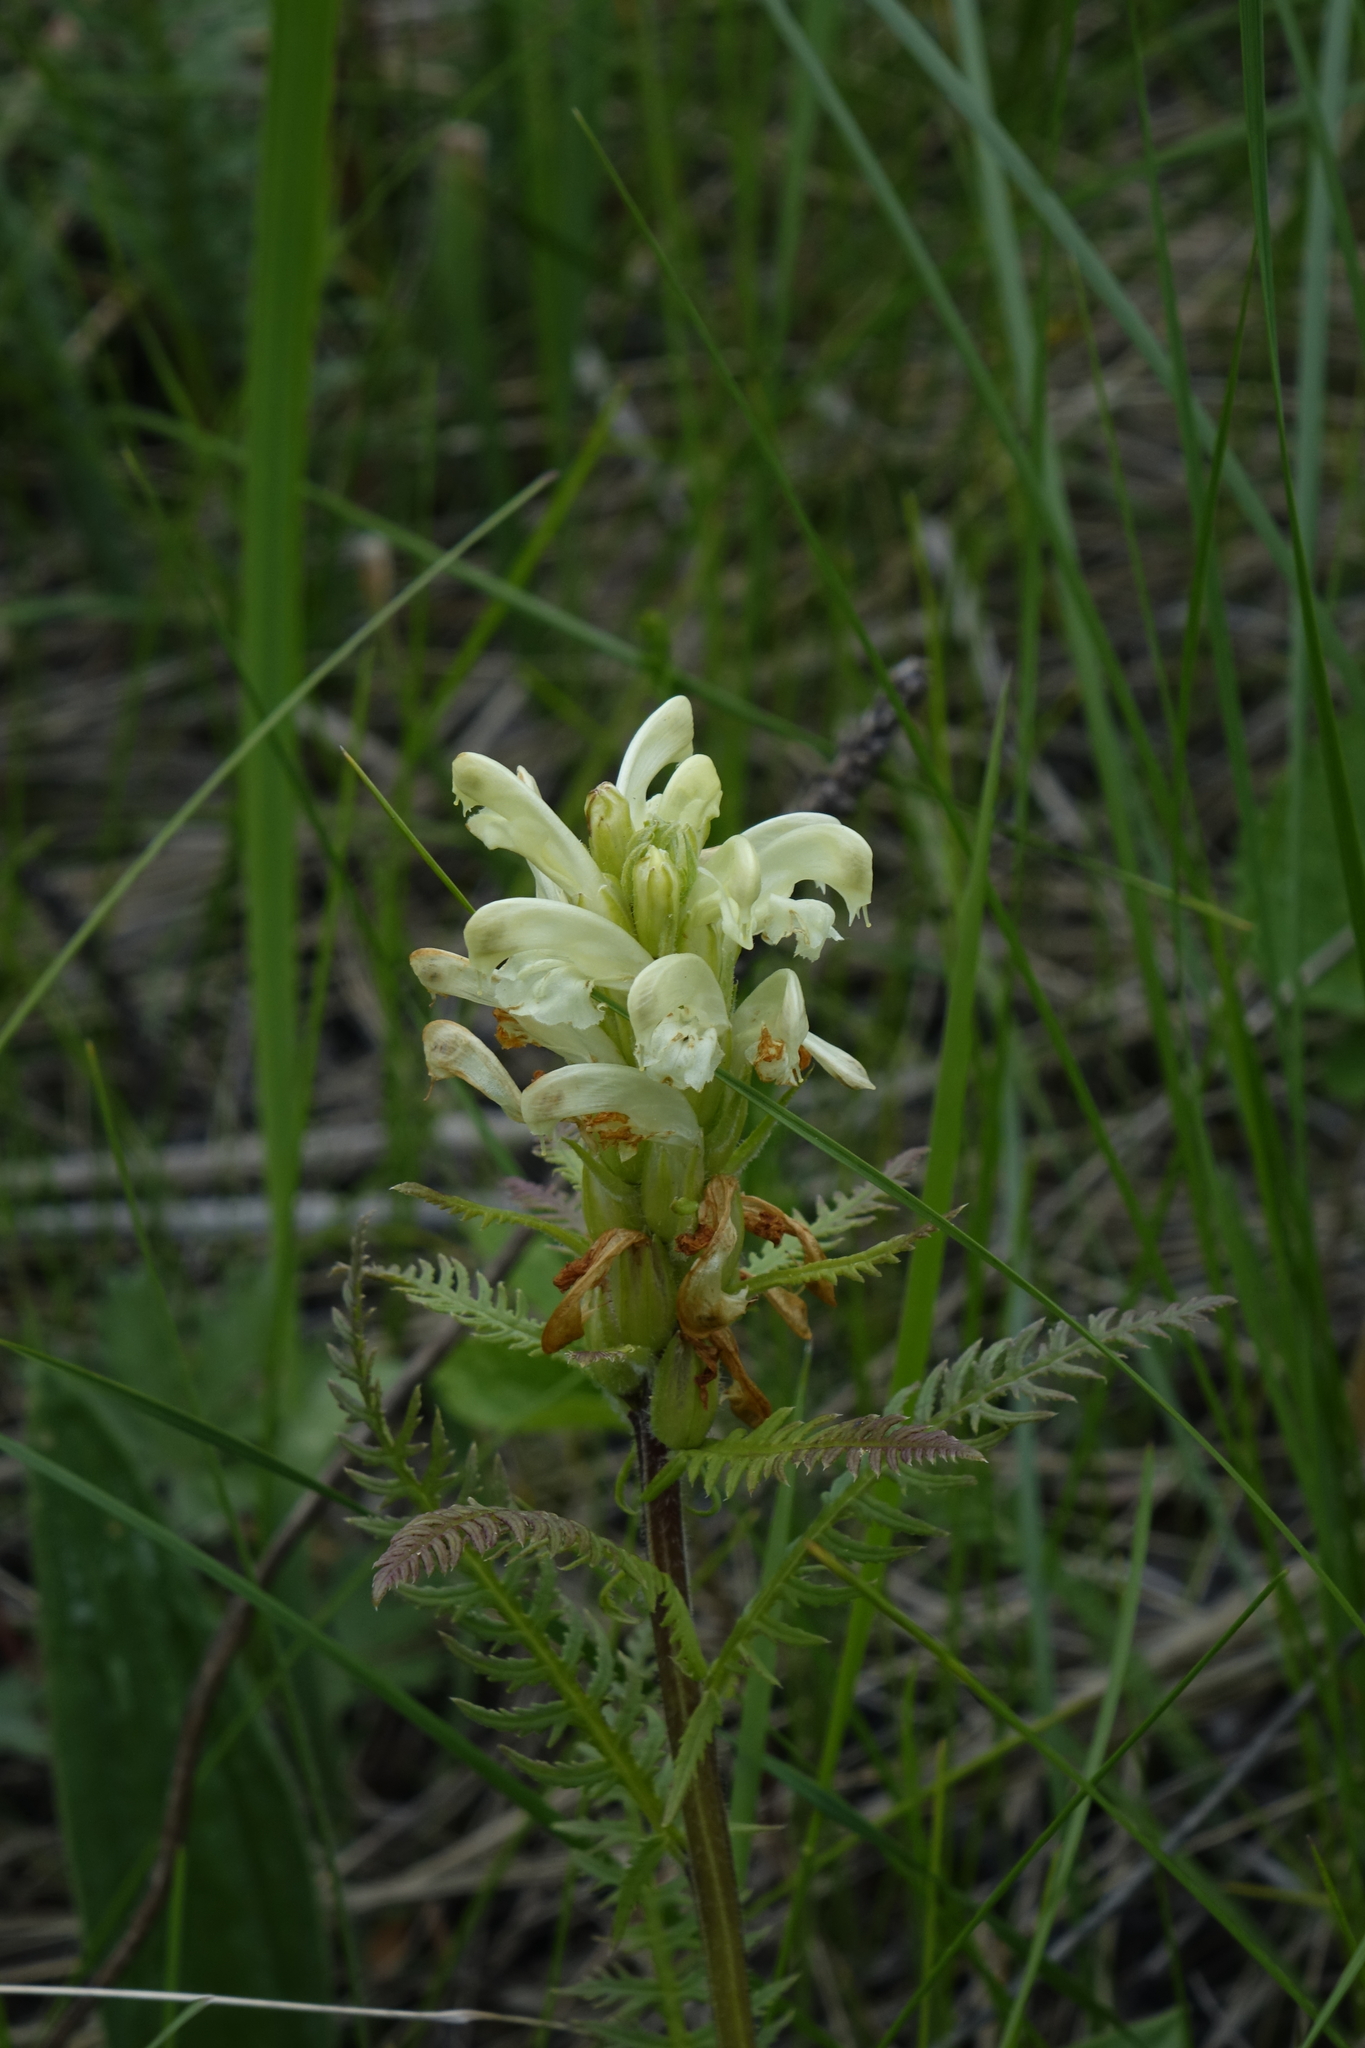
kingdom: Plantae
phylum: Tracheophyta
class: Magnoliopsida
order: Lamiales
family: Orobanchaceae
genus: Pedicularis
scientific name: Pedicularis sibirica
